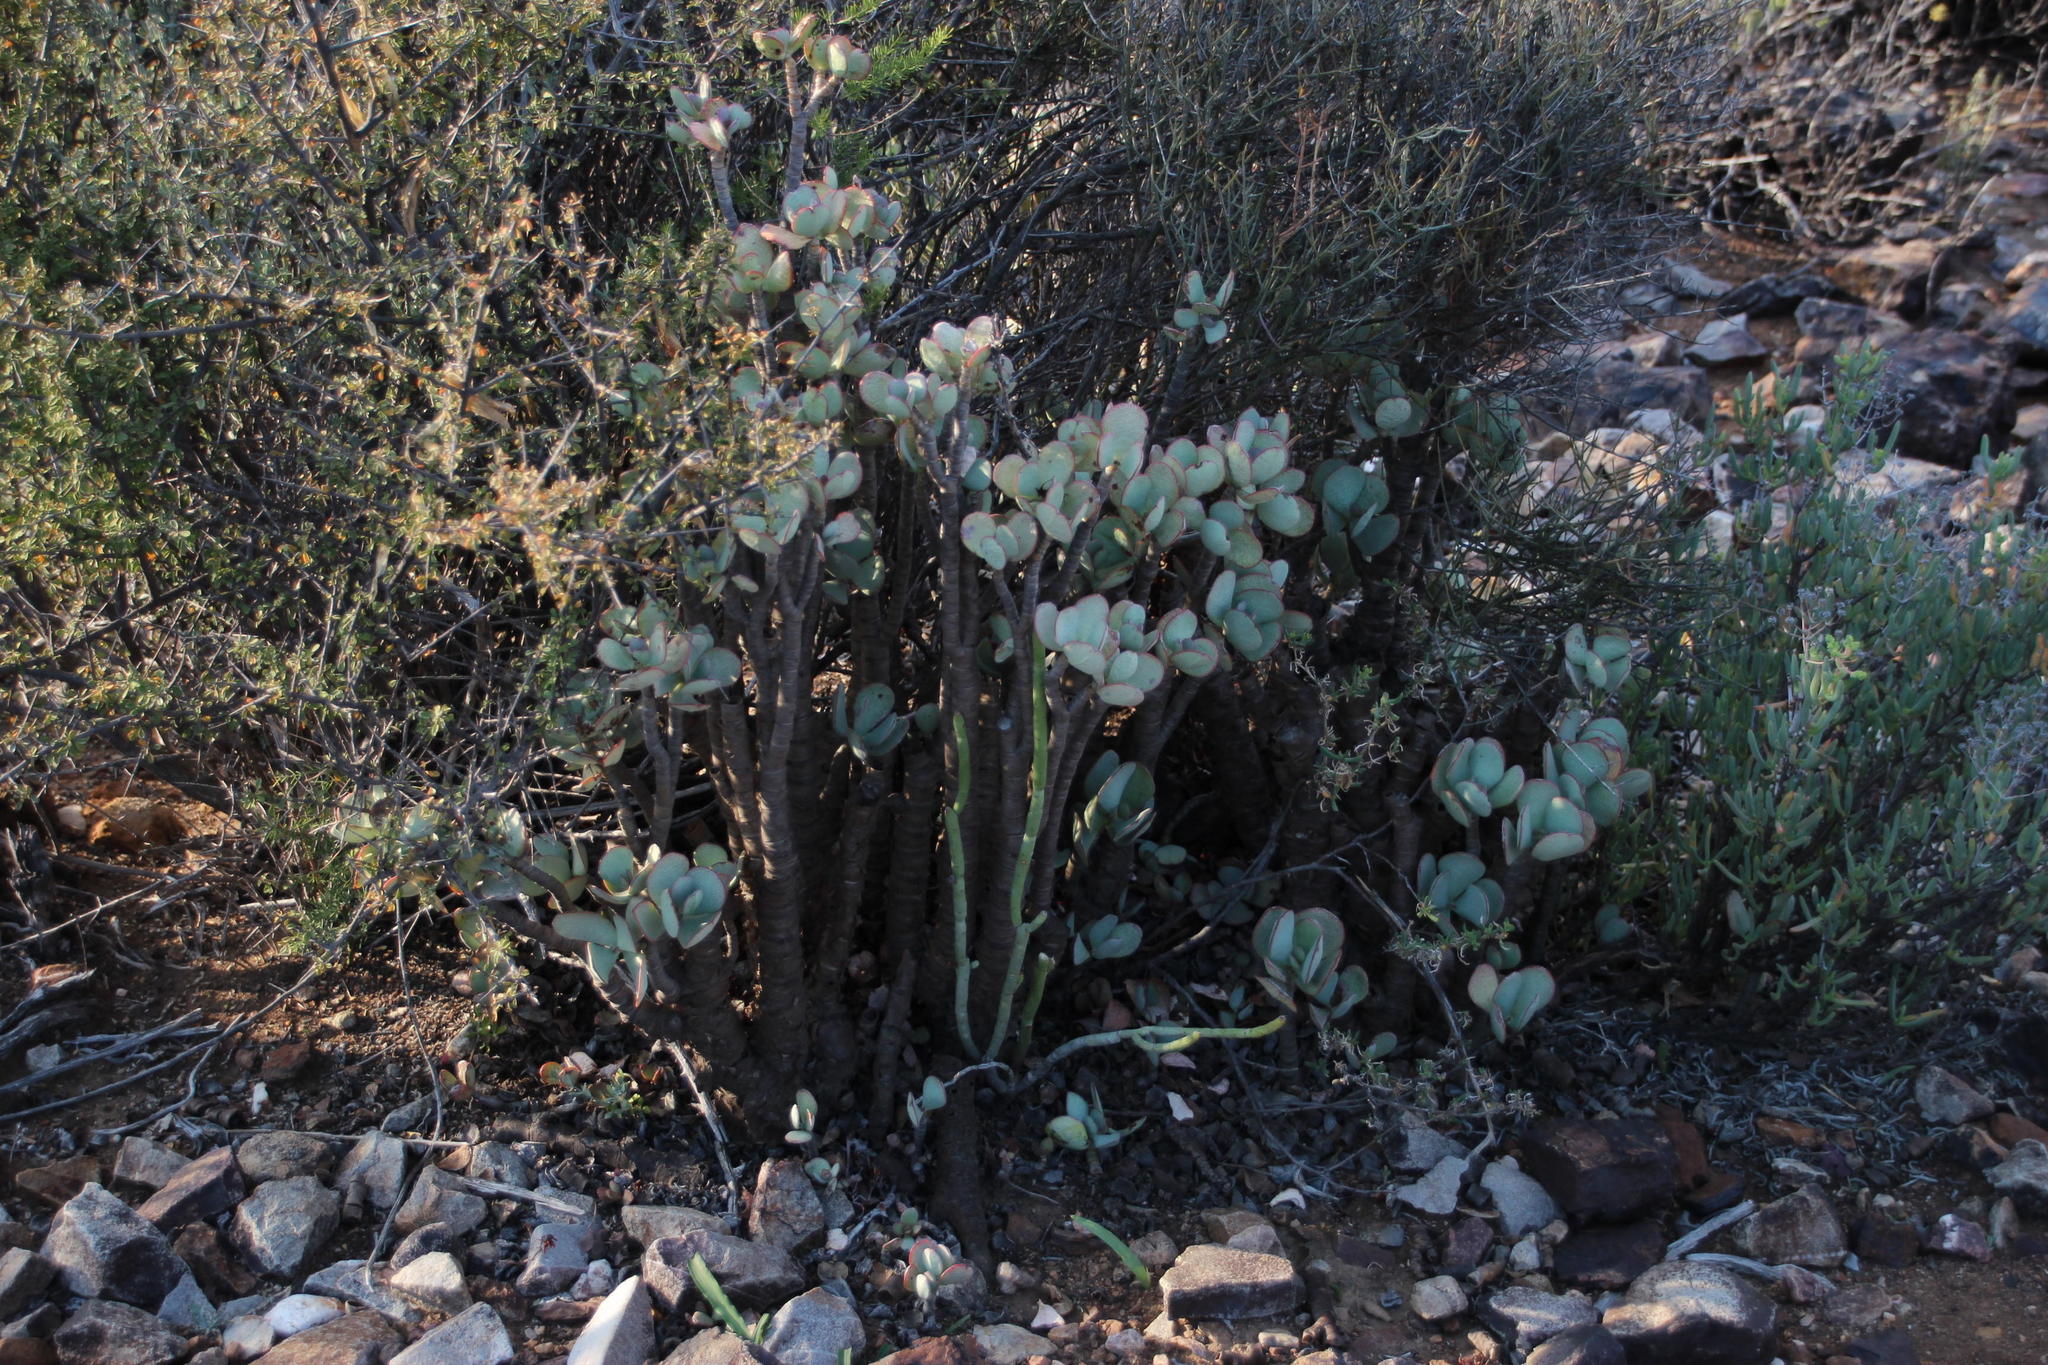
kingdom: Plantae
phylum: Tracheophyta
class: Magnoliopsida
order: Saxifragales
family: Crassulaceae
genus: Crassula
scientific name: Crassula arborescens
